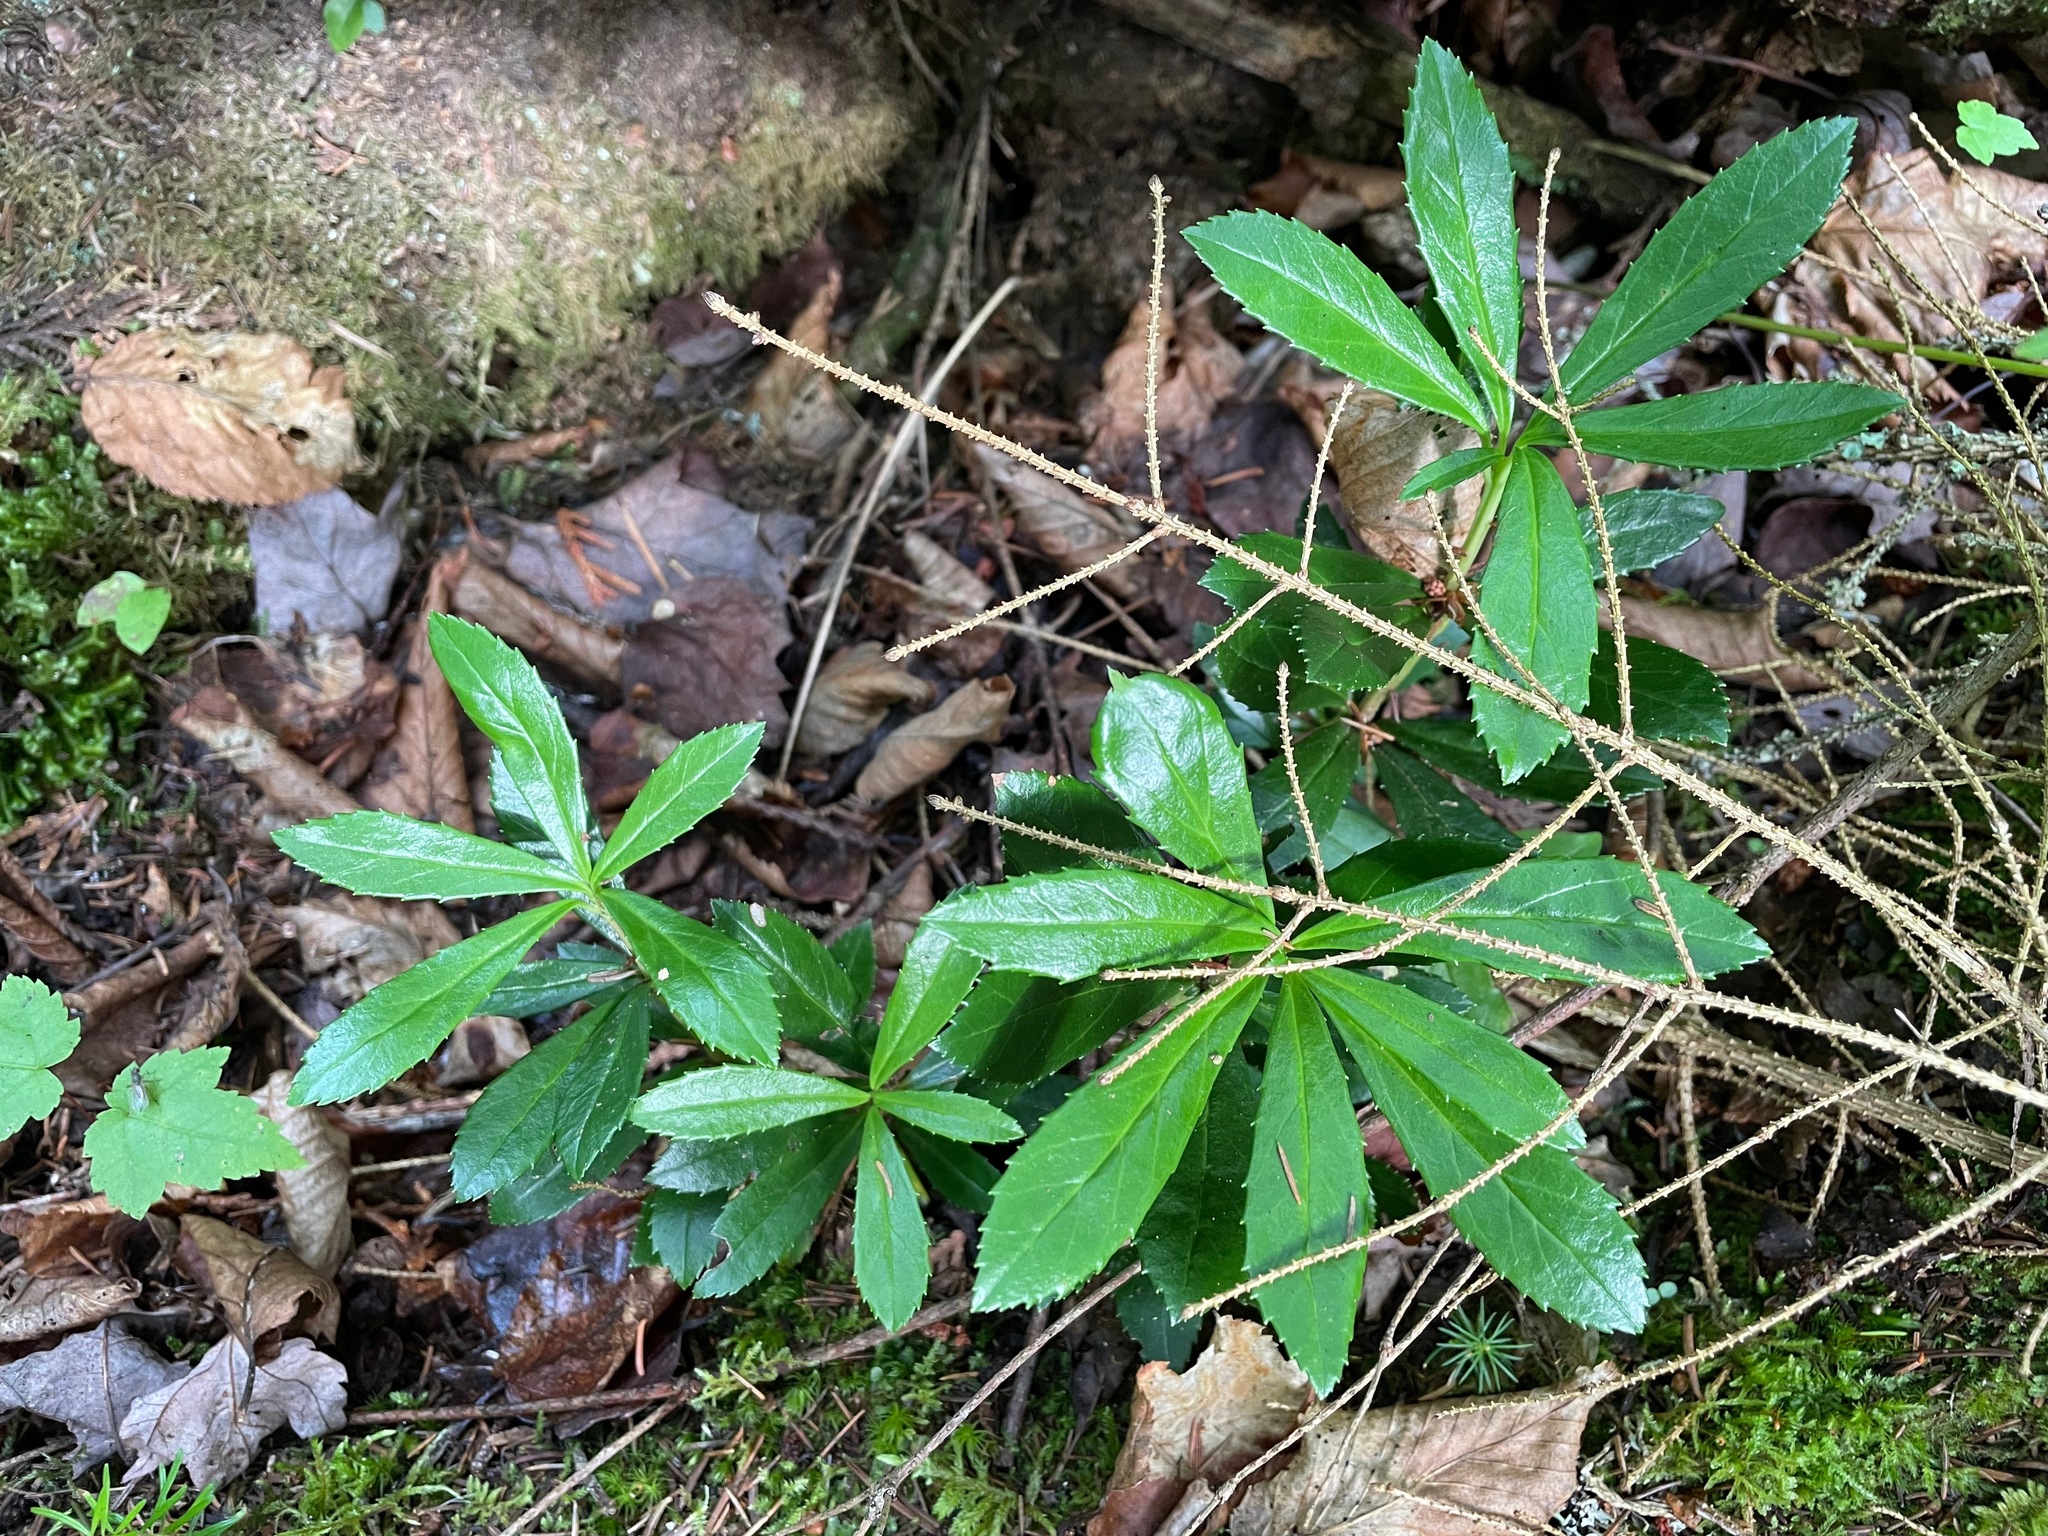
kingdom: Plantae
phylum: Tracheophyta
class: Magnoliopsida
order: Ericales
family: Ericaceae
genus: Chimaphila
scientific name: Chimaphila umbellata
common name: Pipsissewa
